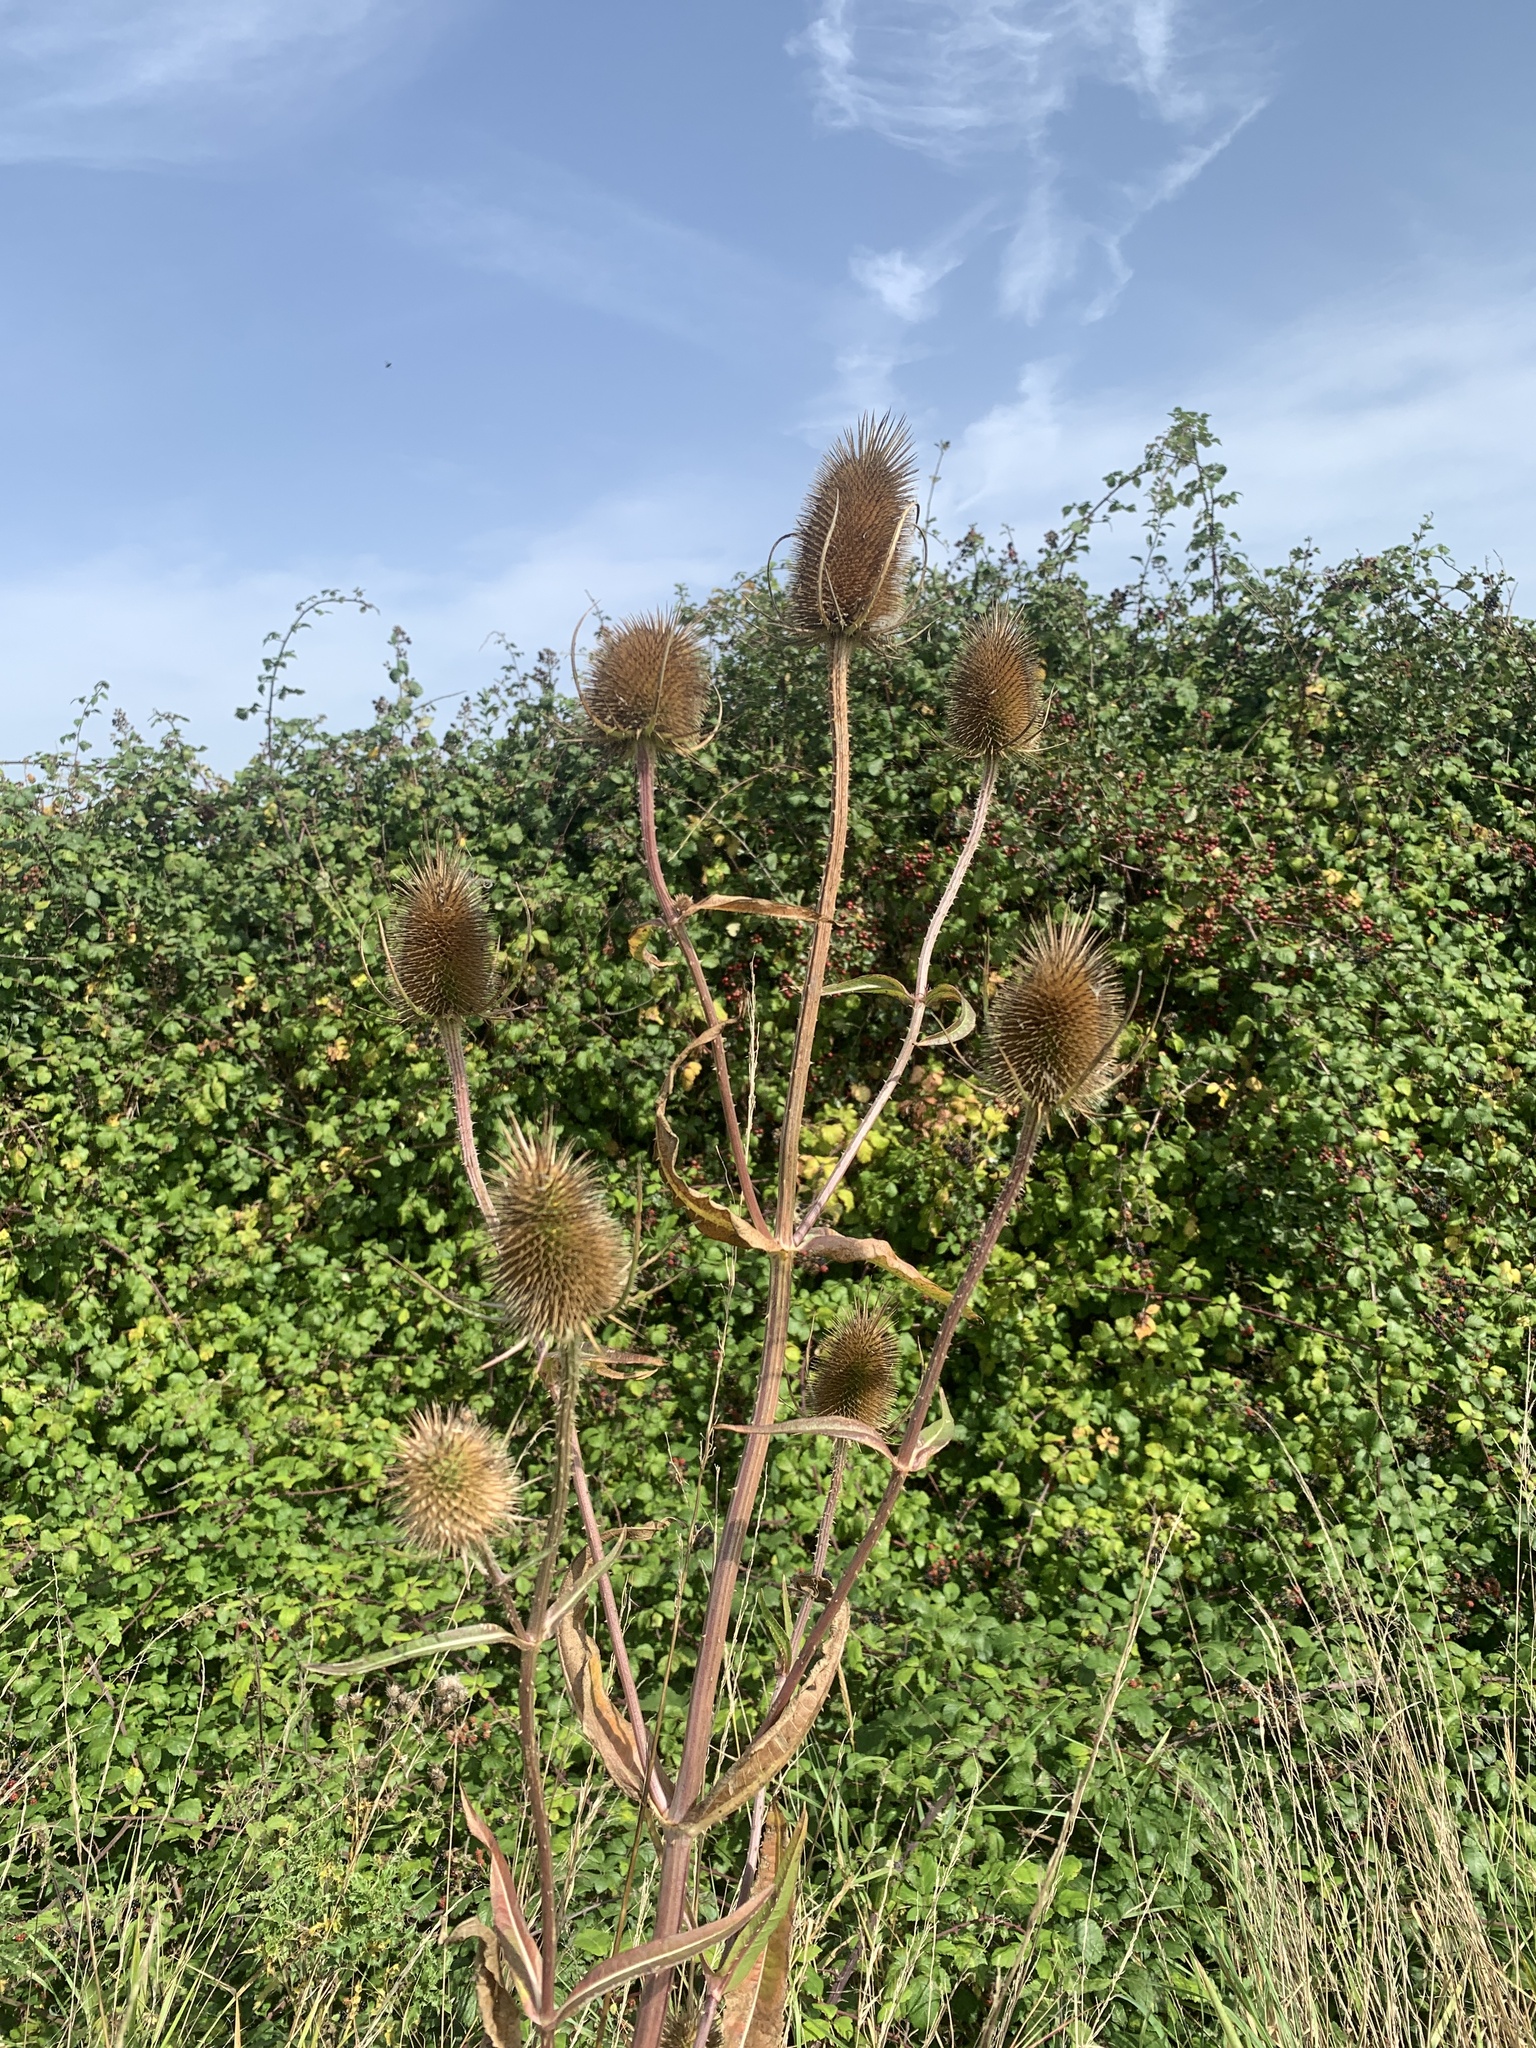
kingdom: Plantae
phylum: Tracheophyta
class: Magnoliopsida
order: Dipsacales
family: Caprifoliaceae
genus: Dipsacus
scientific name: Dipsacus fullonum
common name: Teasel
